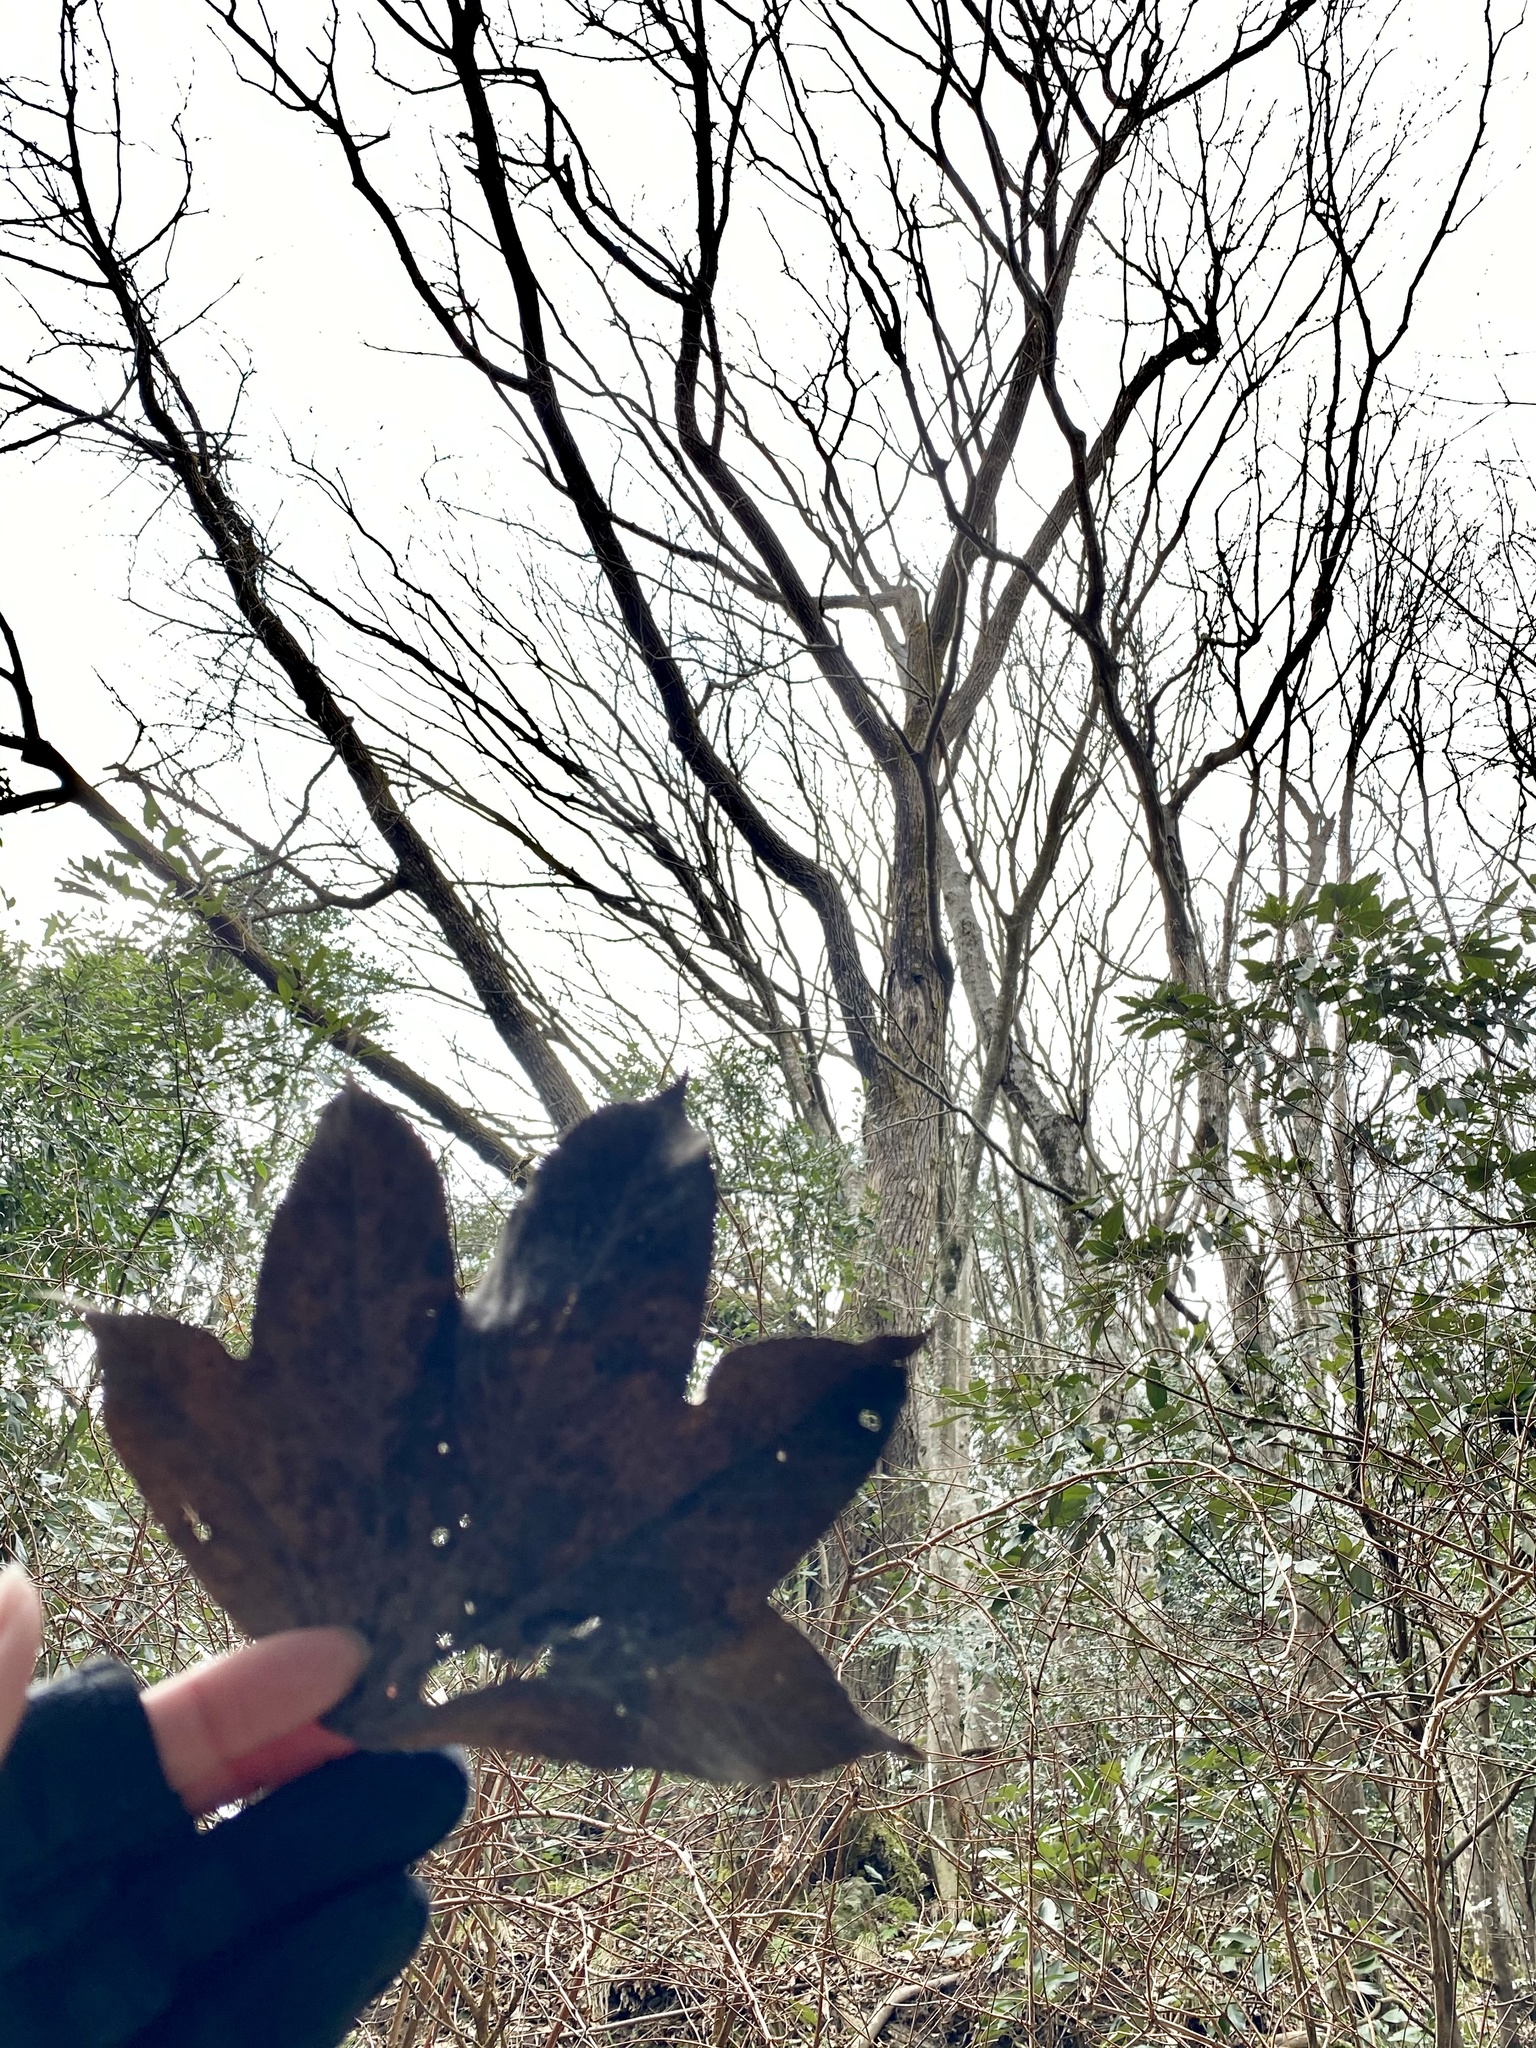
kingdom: Plantae
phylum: Tracheophyta
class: Magnoliopsida
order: Apiales
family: Araliaceae
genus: Kalopanax
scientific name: Kalopanax septemlobus
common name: Castor aralia
